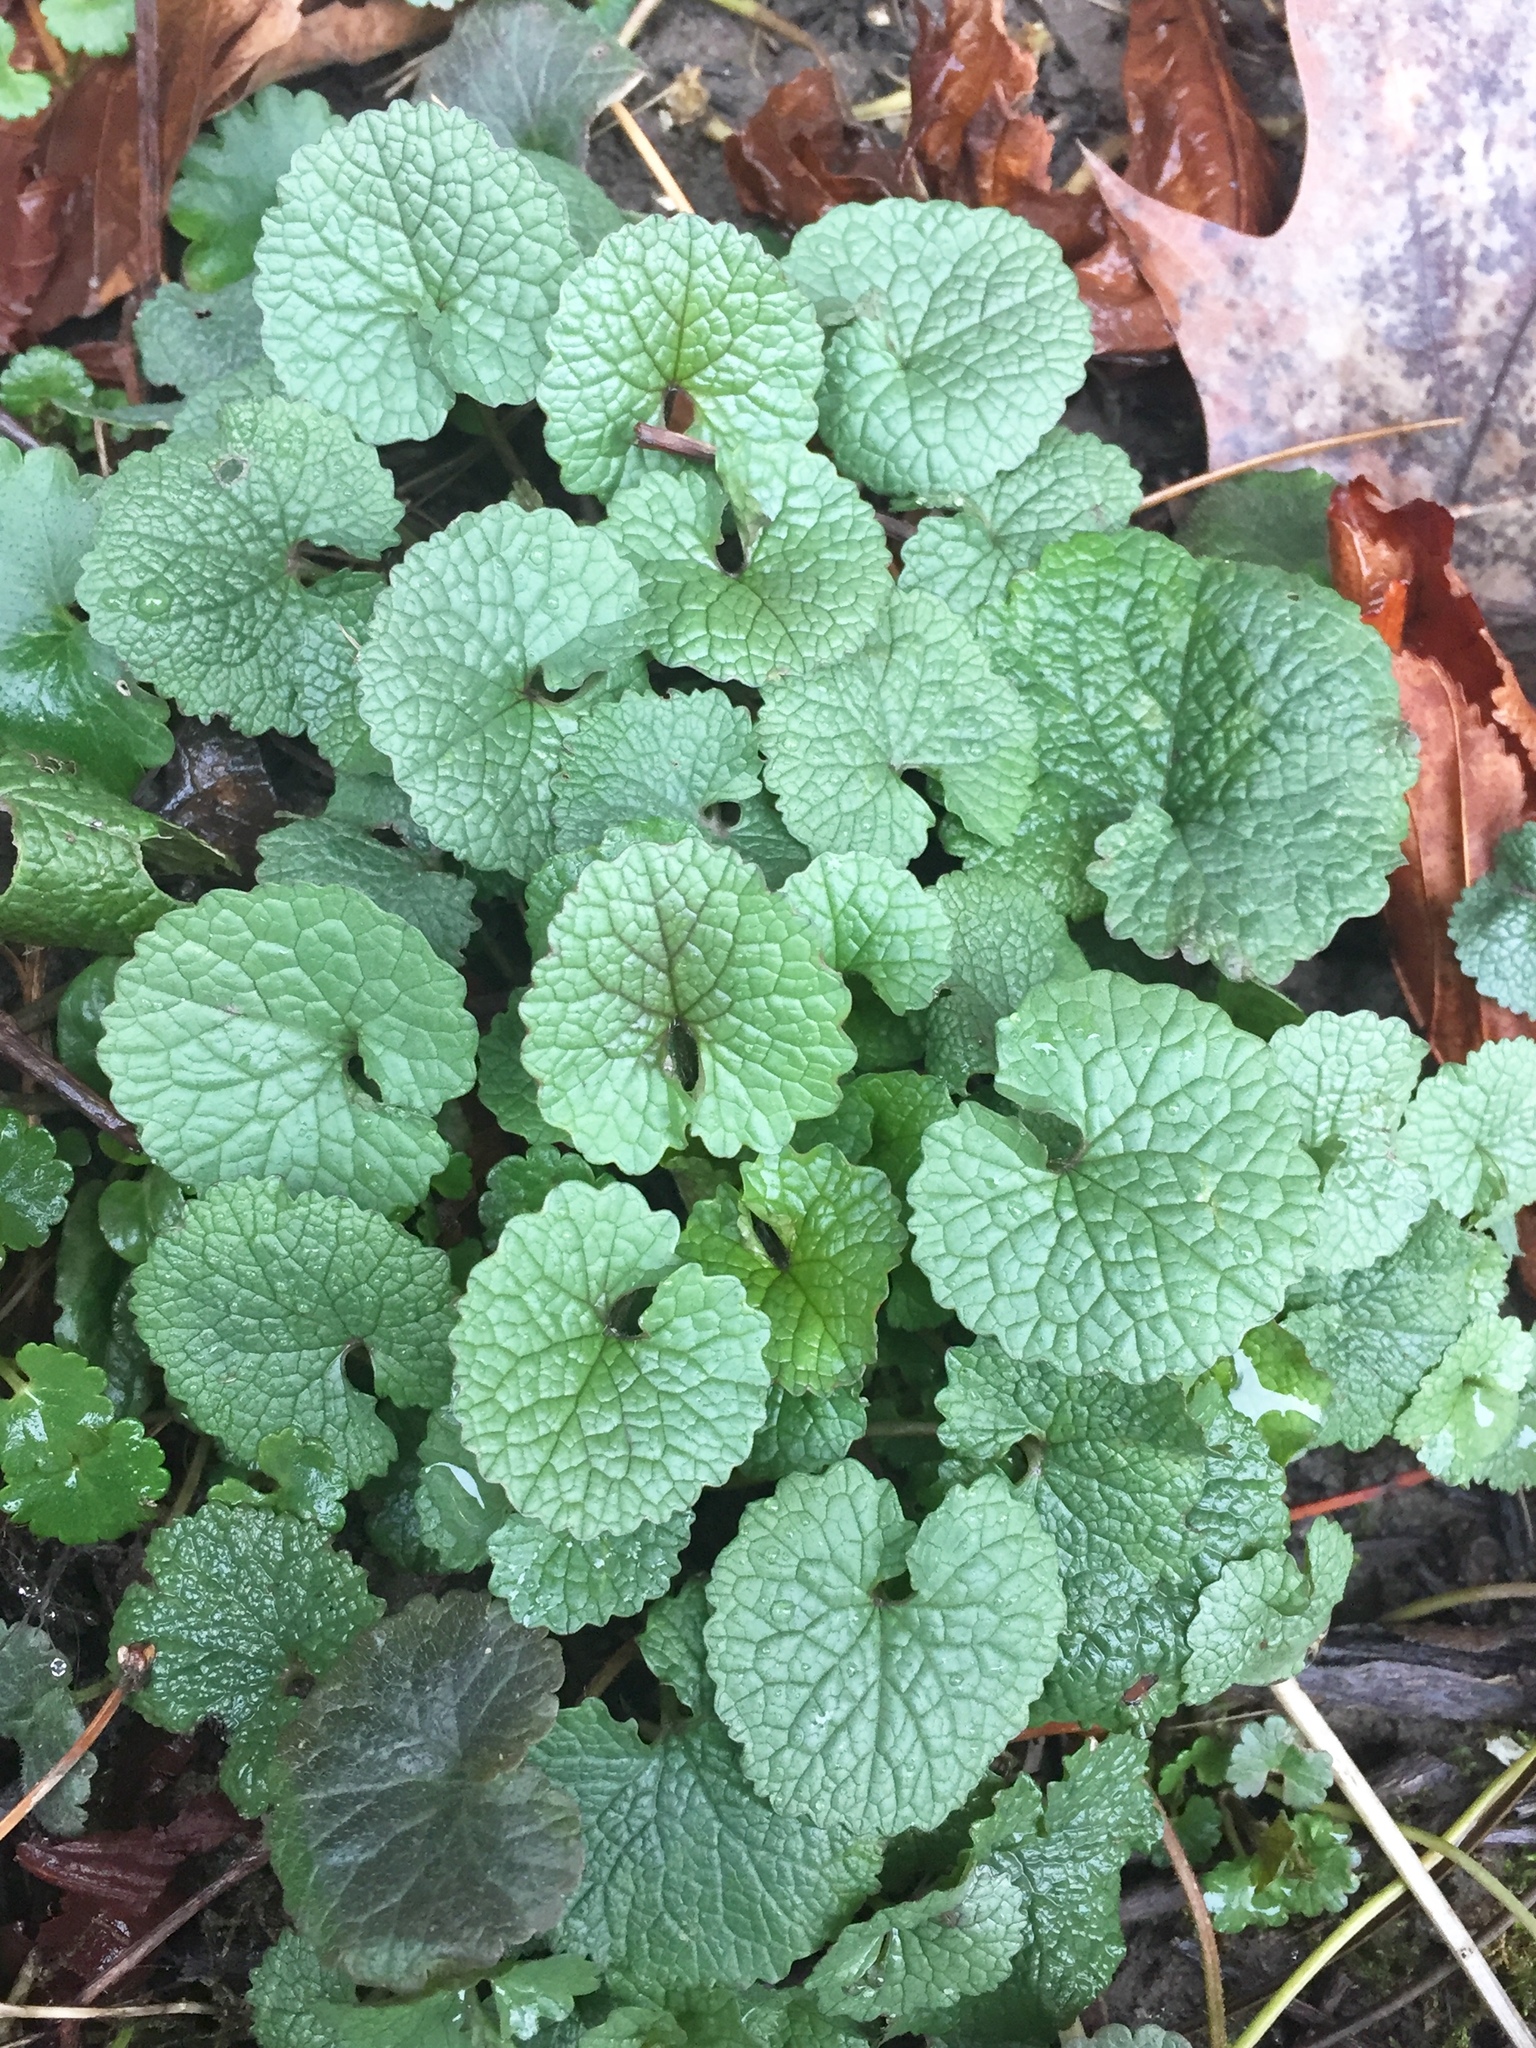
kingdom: Plantae
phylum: Tracheophyta
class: Magnoliopsida
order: Brassicales
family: Brassicaceae
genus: Alliaria
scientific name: Alliaria petiolata
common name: Garlic mustard
